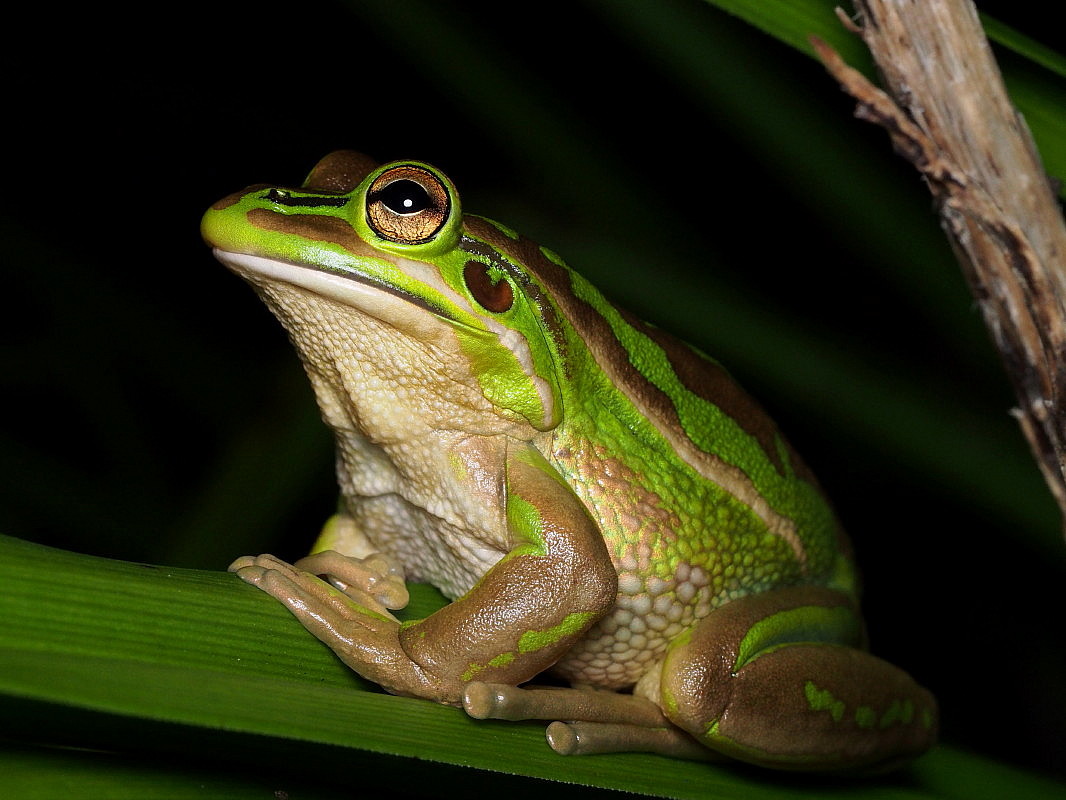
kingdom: Animalia
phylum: Chordata
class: Amphibia
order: Anura
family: Pelodryadidae
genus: Ranoidea
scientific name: Ranoidea aurea
